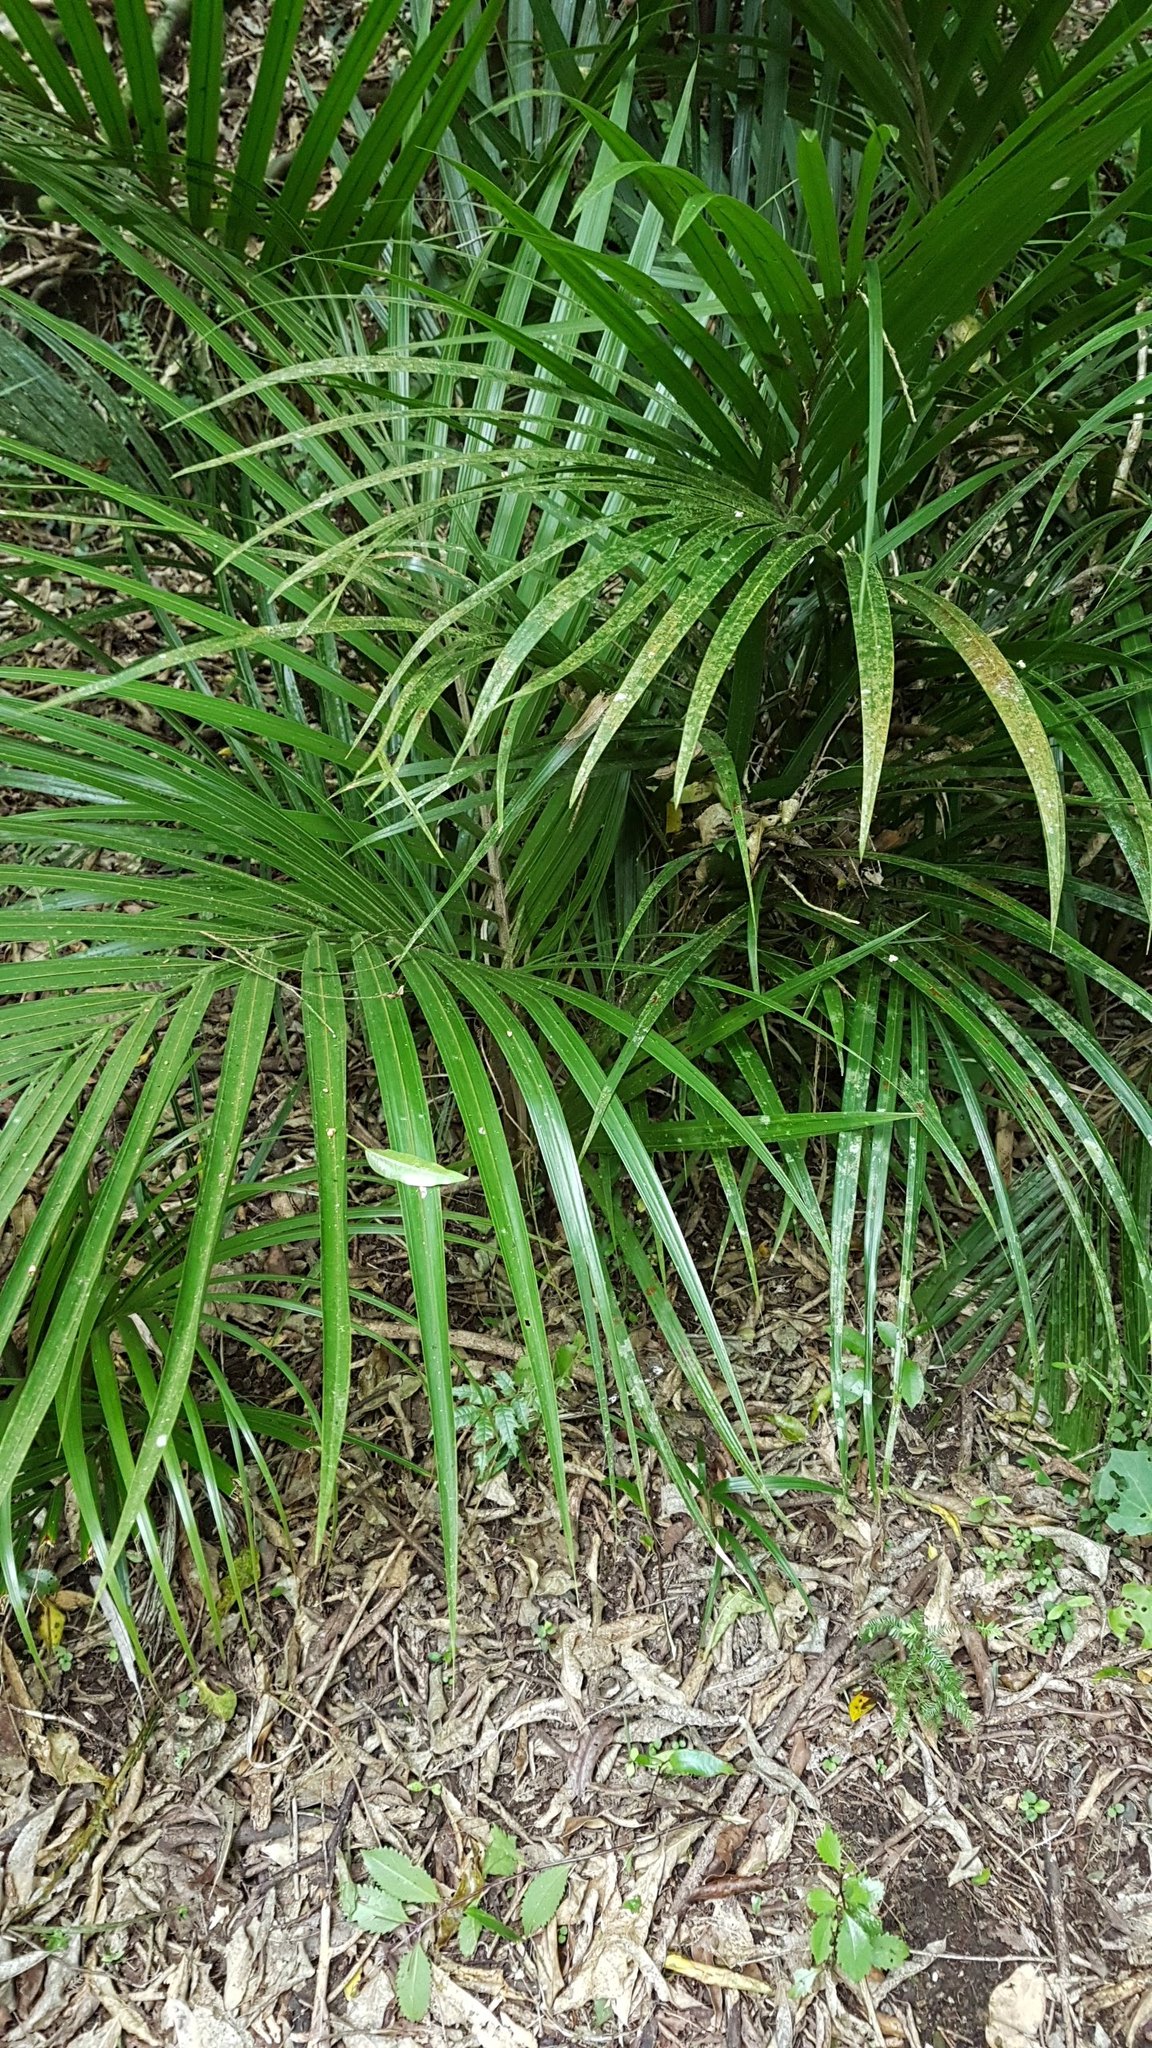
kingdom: Plantae
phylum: Tracheophyta
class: Liliopsida
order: Arecales
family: Arecaceae
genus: Rhopalostylis
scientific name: Rhopalostylis sapida
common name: Feather-duster palm
